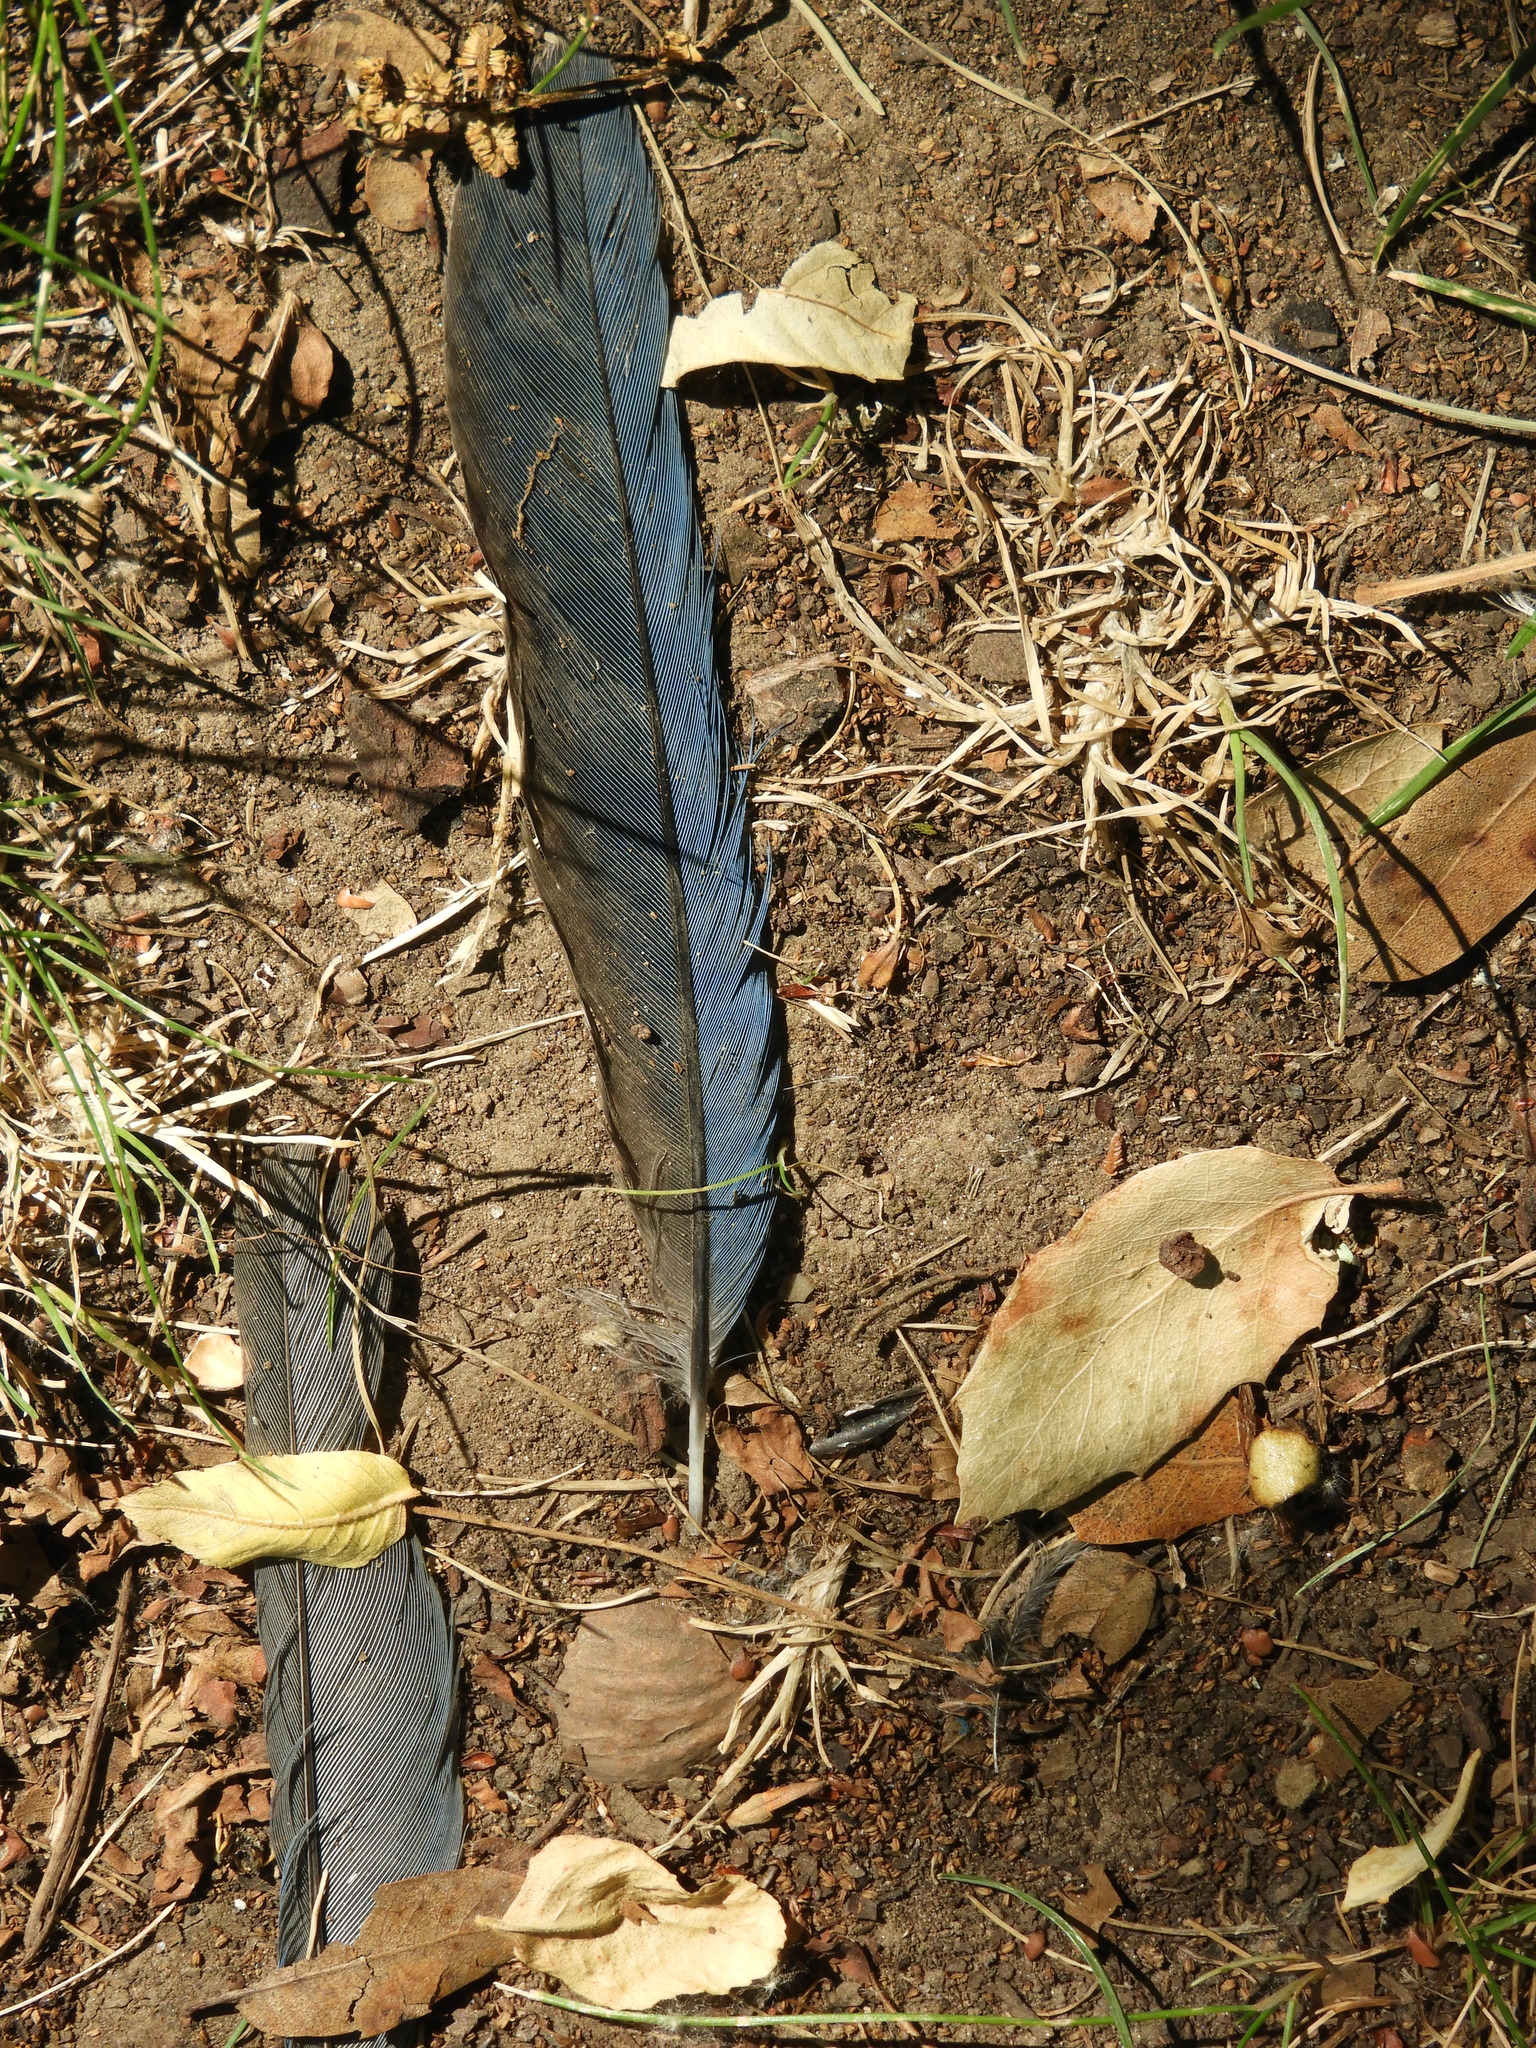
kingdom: Animalia
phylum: Chordata
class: Aves
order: Passeriformes
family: Corvidae
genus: Aphelocoma
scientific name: Aphelocoma californica
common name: California scrub-jay
